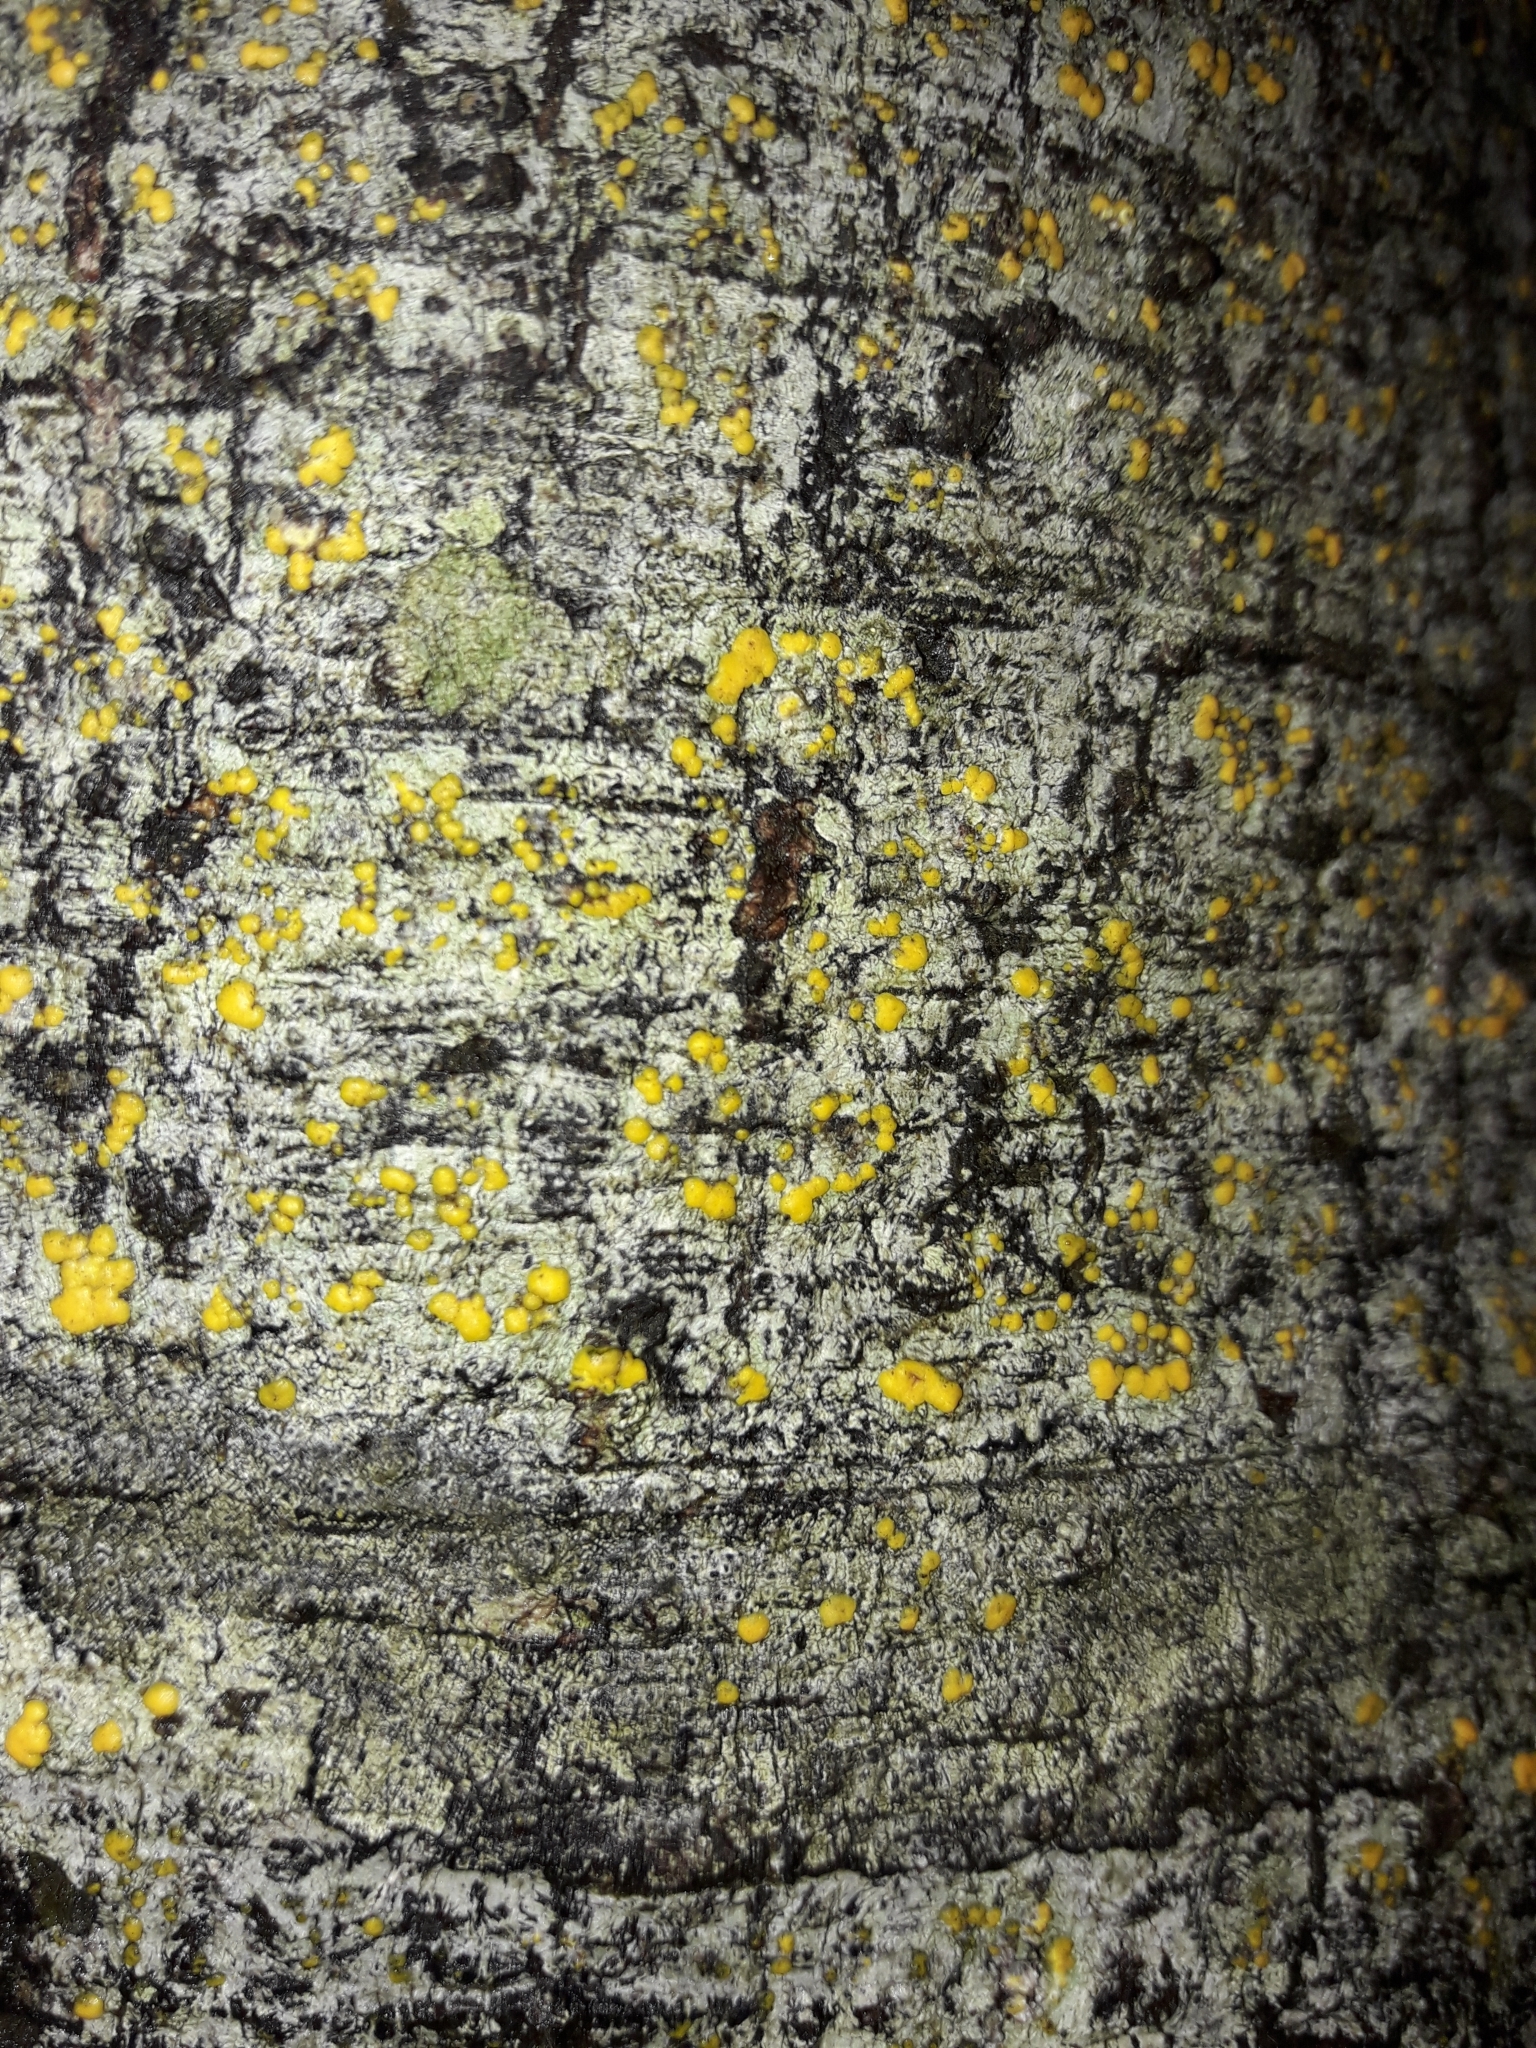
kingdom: Fungi
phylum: Ascomycota
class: Lecanoromycetes
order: Lecanorales
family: Ramalinaceae
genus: Stirtoniella
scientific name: Stirtoniella kelica
